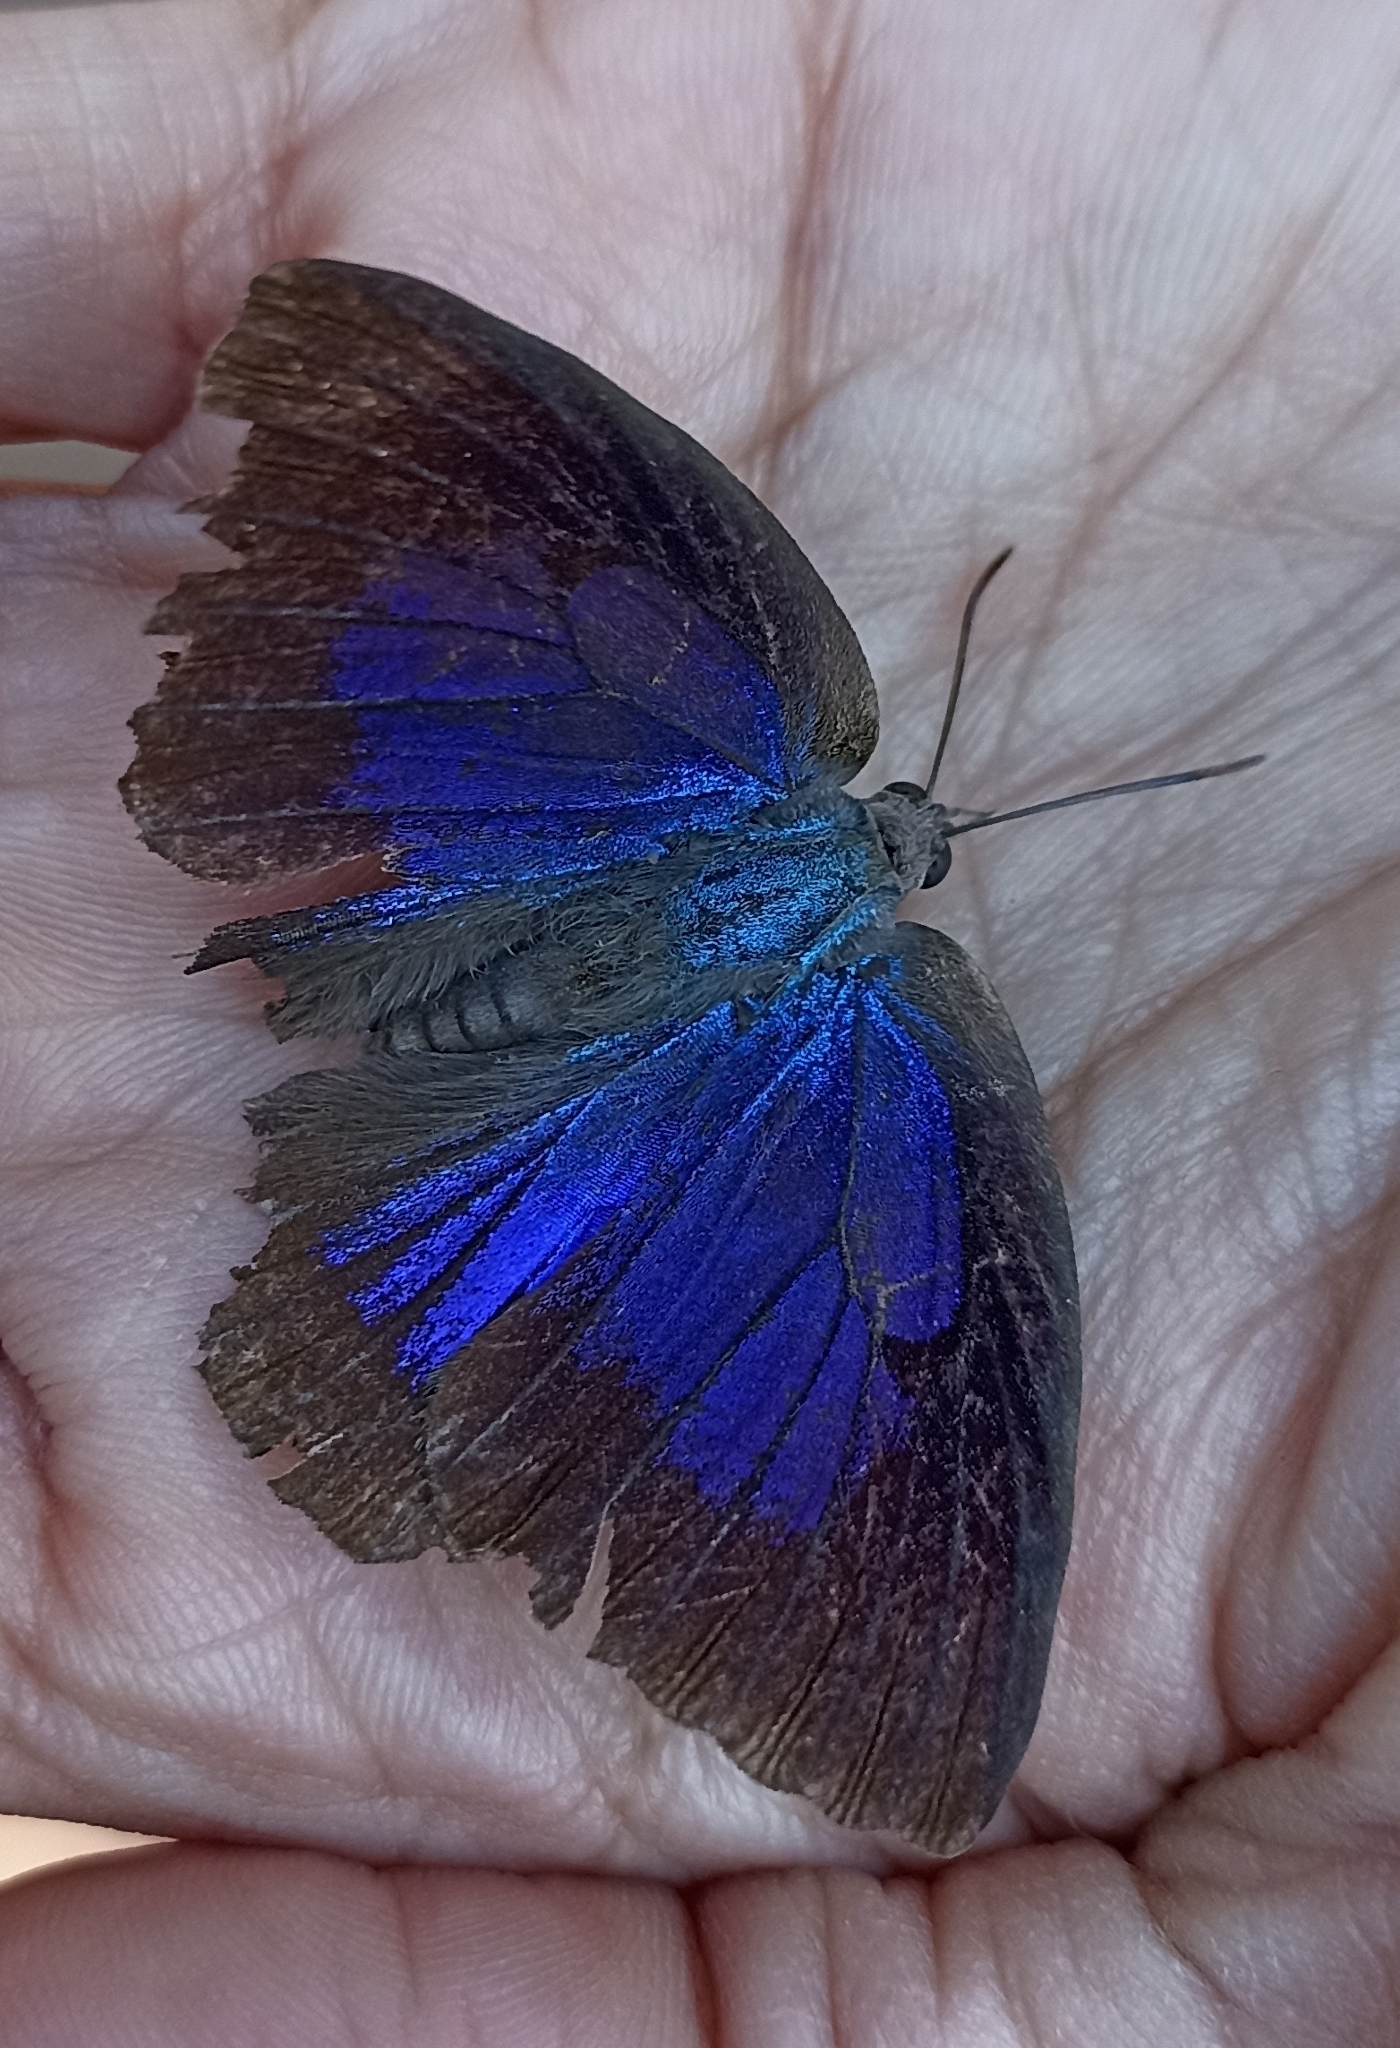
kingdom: Animalia
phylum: Arthropoda
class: Insecta
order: Lepidoptera
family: Lycaenidae
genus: Arhopala
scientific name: Arhopala amantes
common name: Large oakblue
